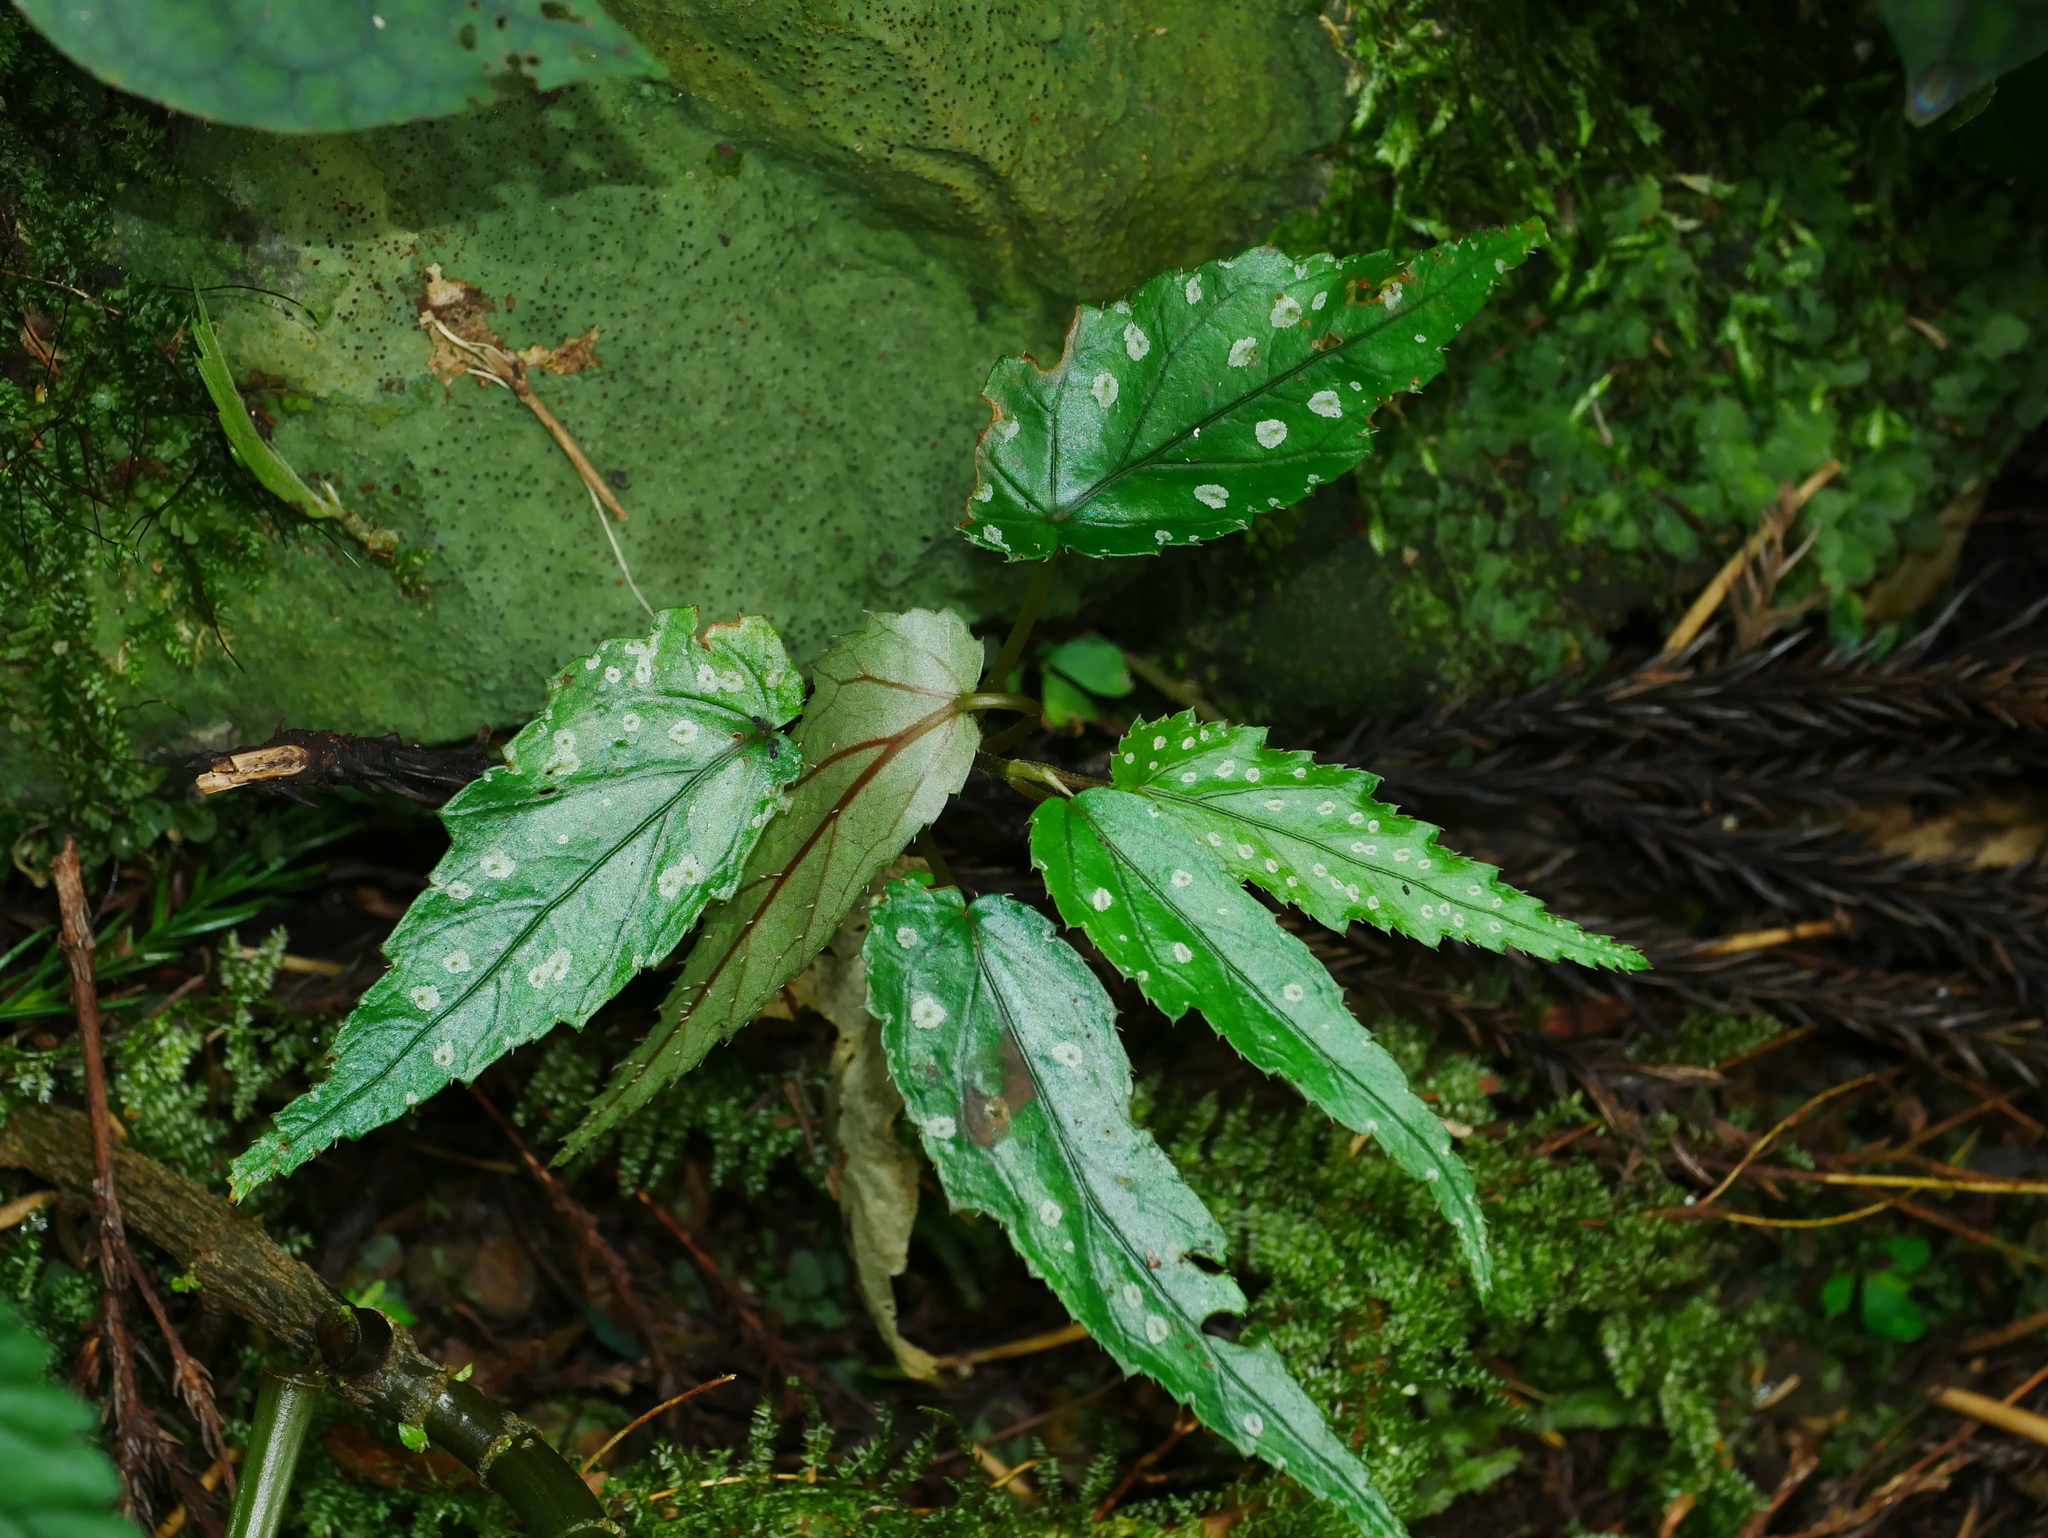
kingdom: Plantae
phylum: Tracheophyta
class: Magnoliopsida
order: Cucurbitales
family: Begoniaceae
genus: Begonia
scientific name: Begonia taiwaniana
